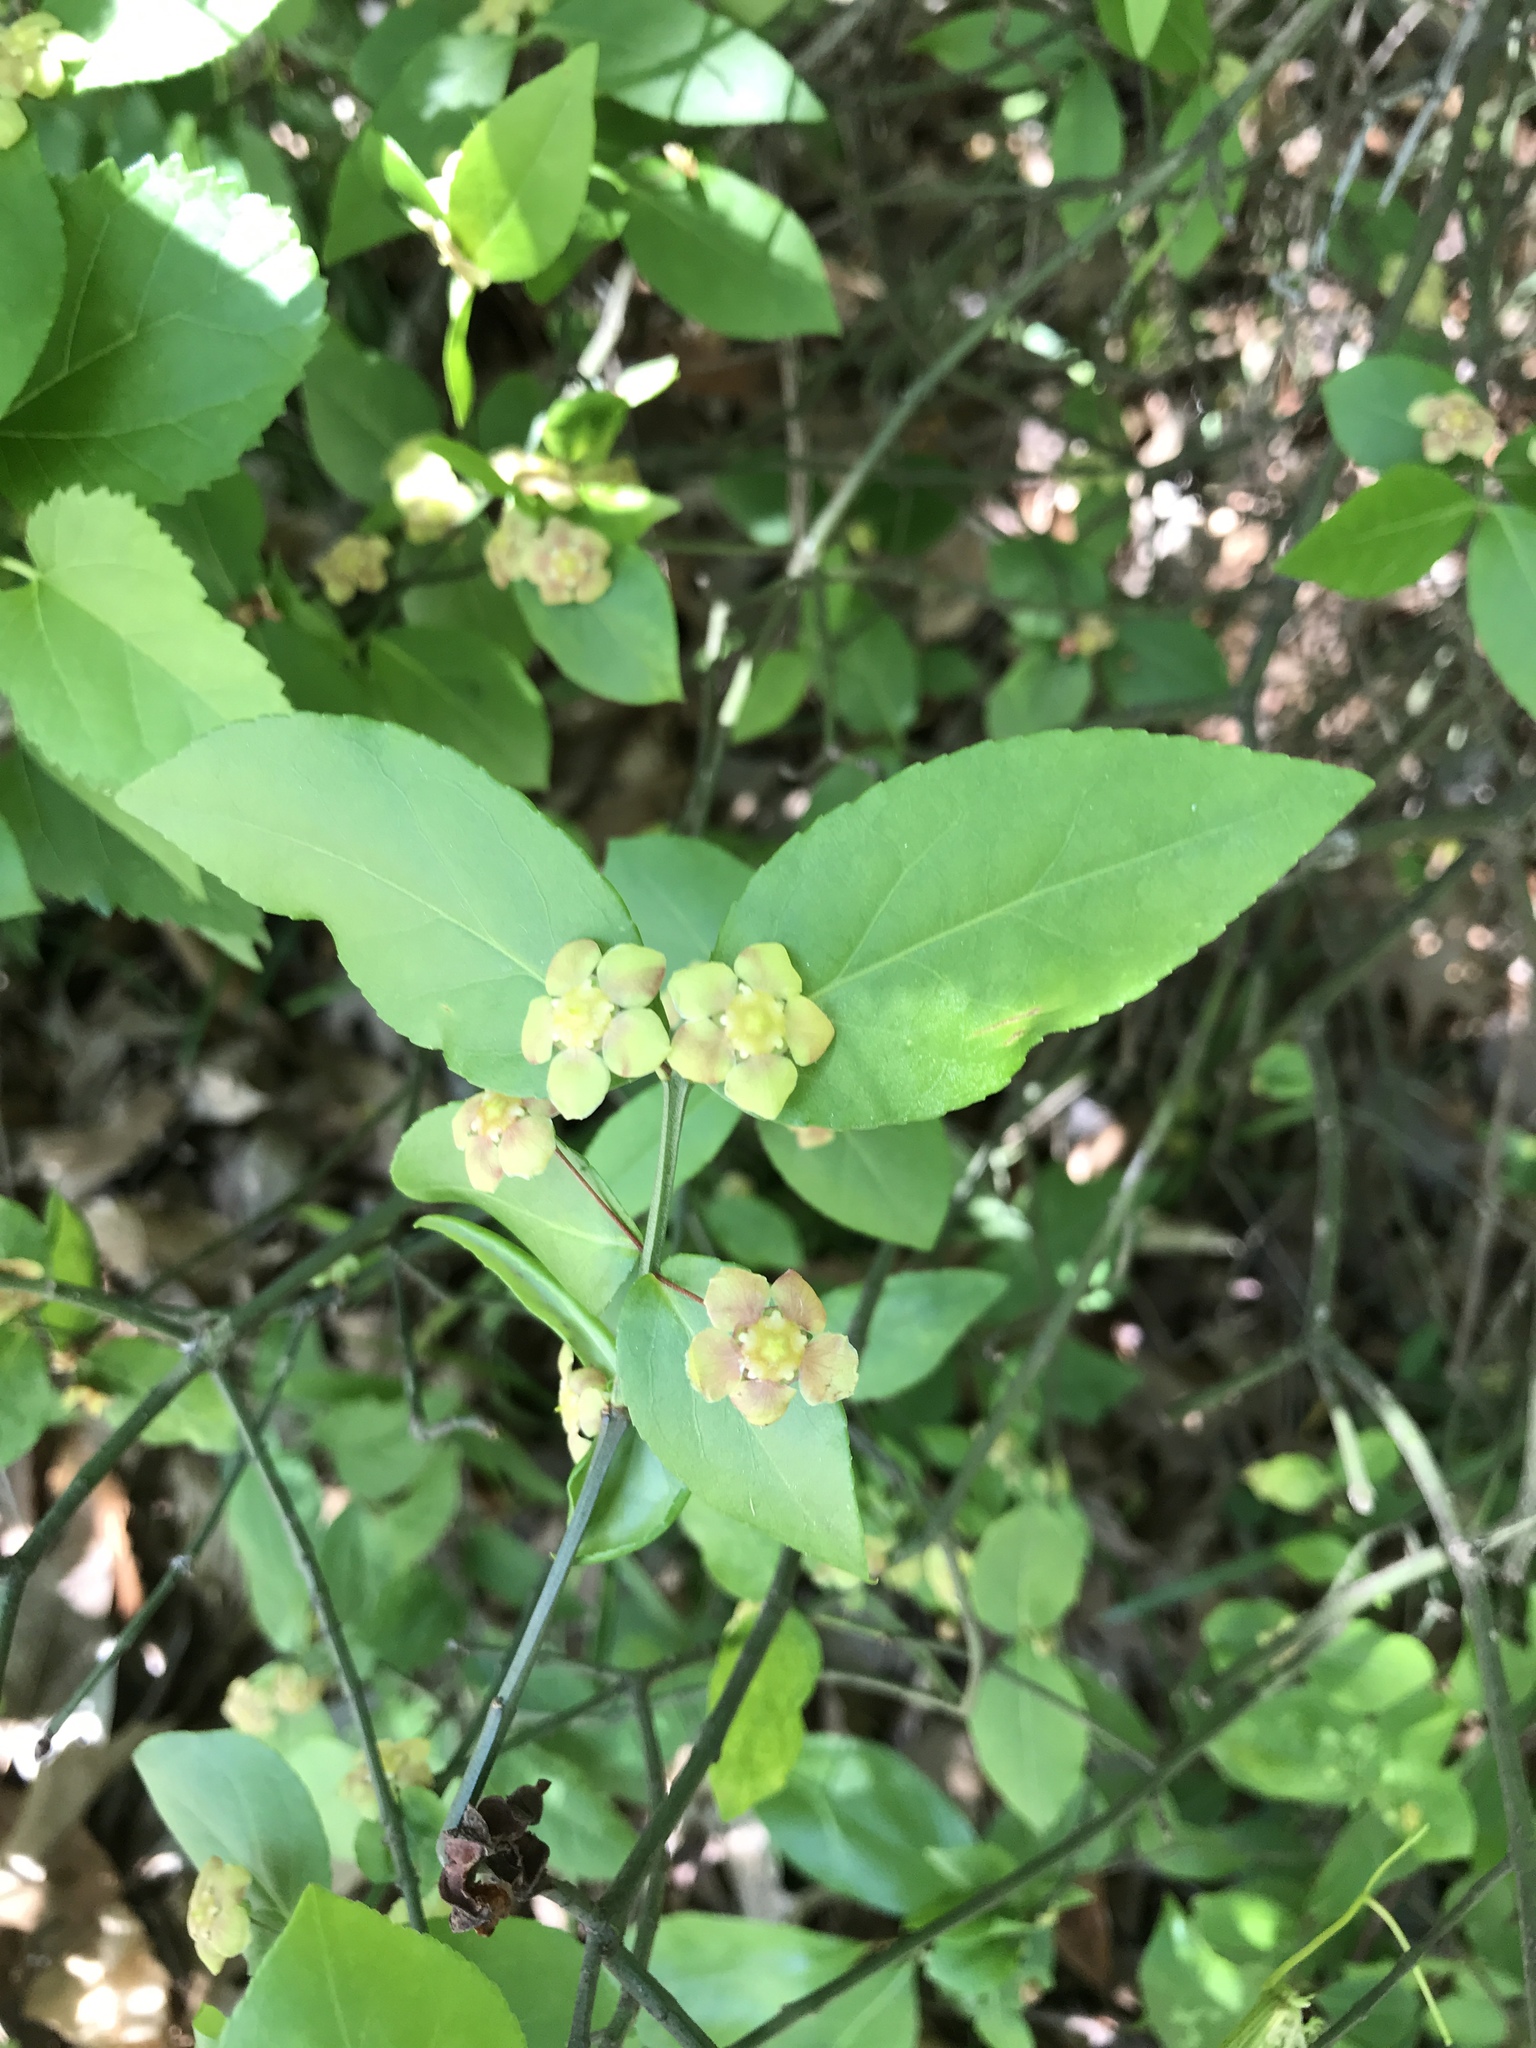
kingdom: Plantae
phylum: Tracheophyta
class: Magnoliopsida
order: Celastrales
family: Celastraceae
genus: Euonymus
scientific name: Euonymus americanus
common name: Bursting-heart
